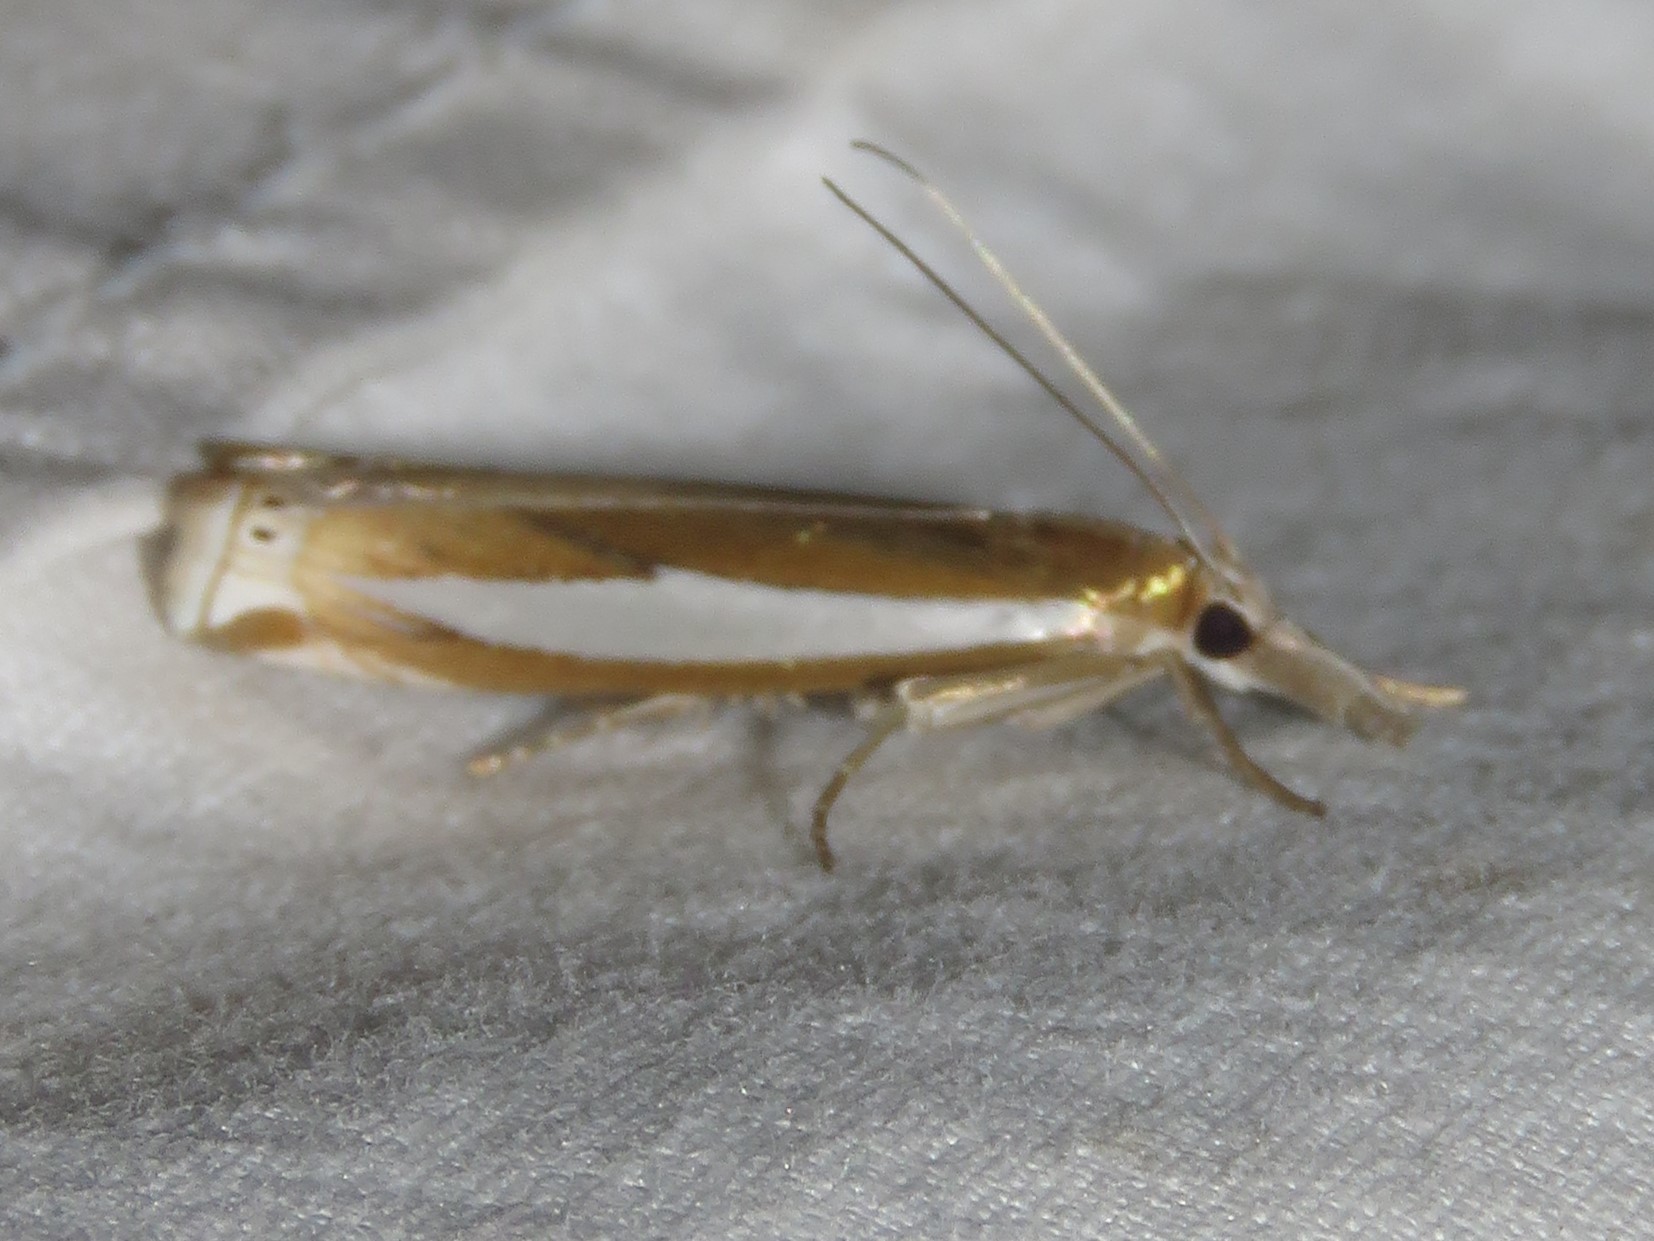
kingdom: Animalia
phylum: Arthropoda
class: Insecta
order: Lepidoptera
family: Crambidae
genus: Crambus
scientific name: Crambus praefectellus
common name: Common grass-veneer
